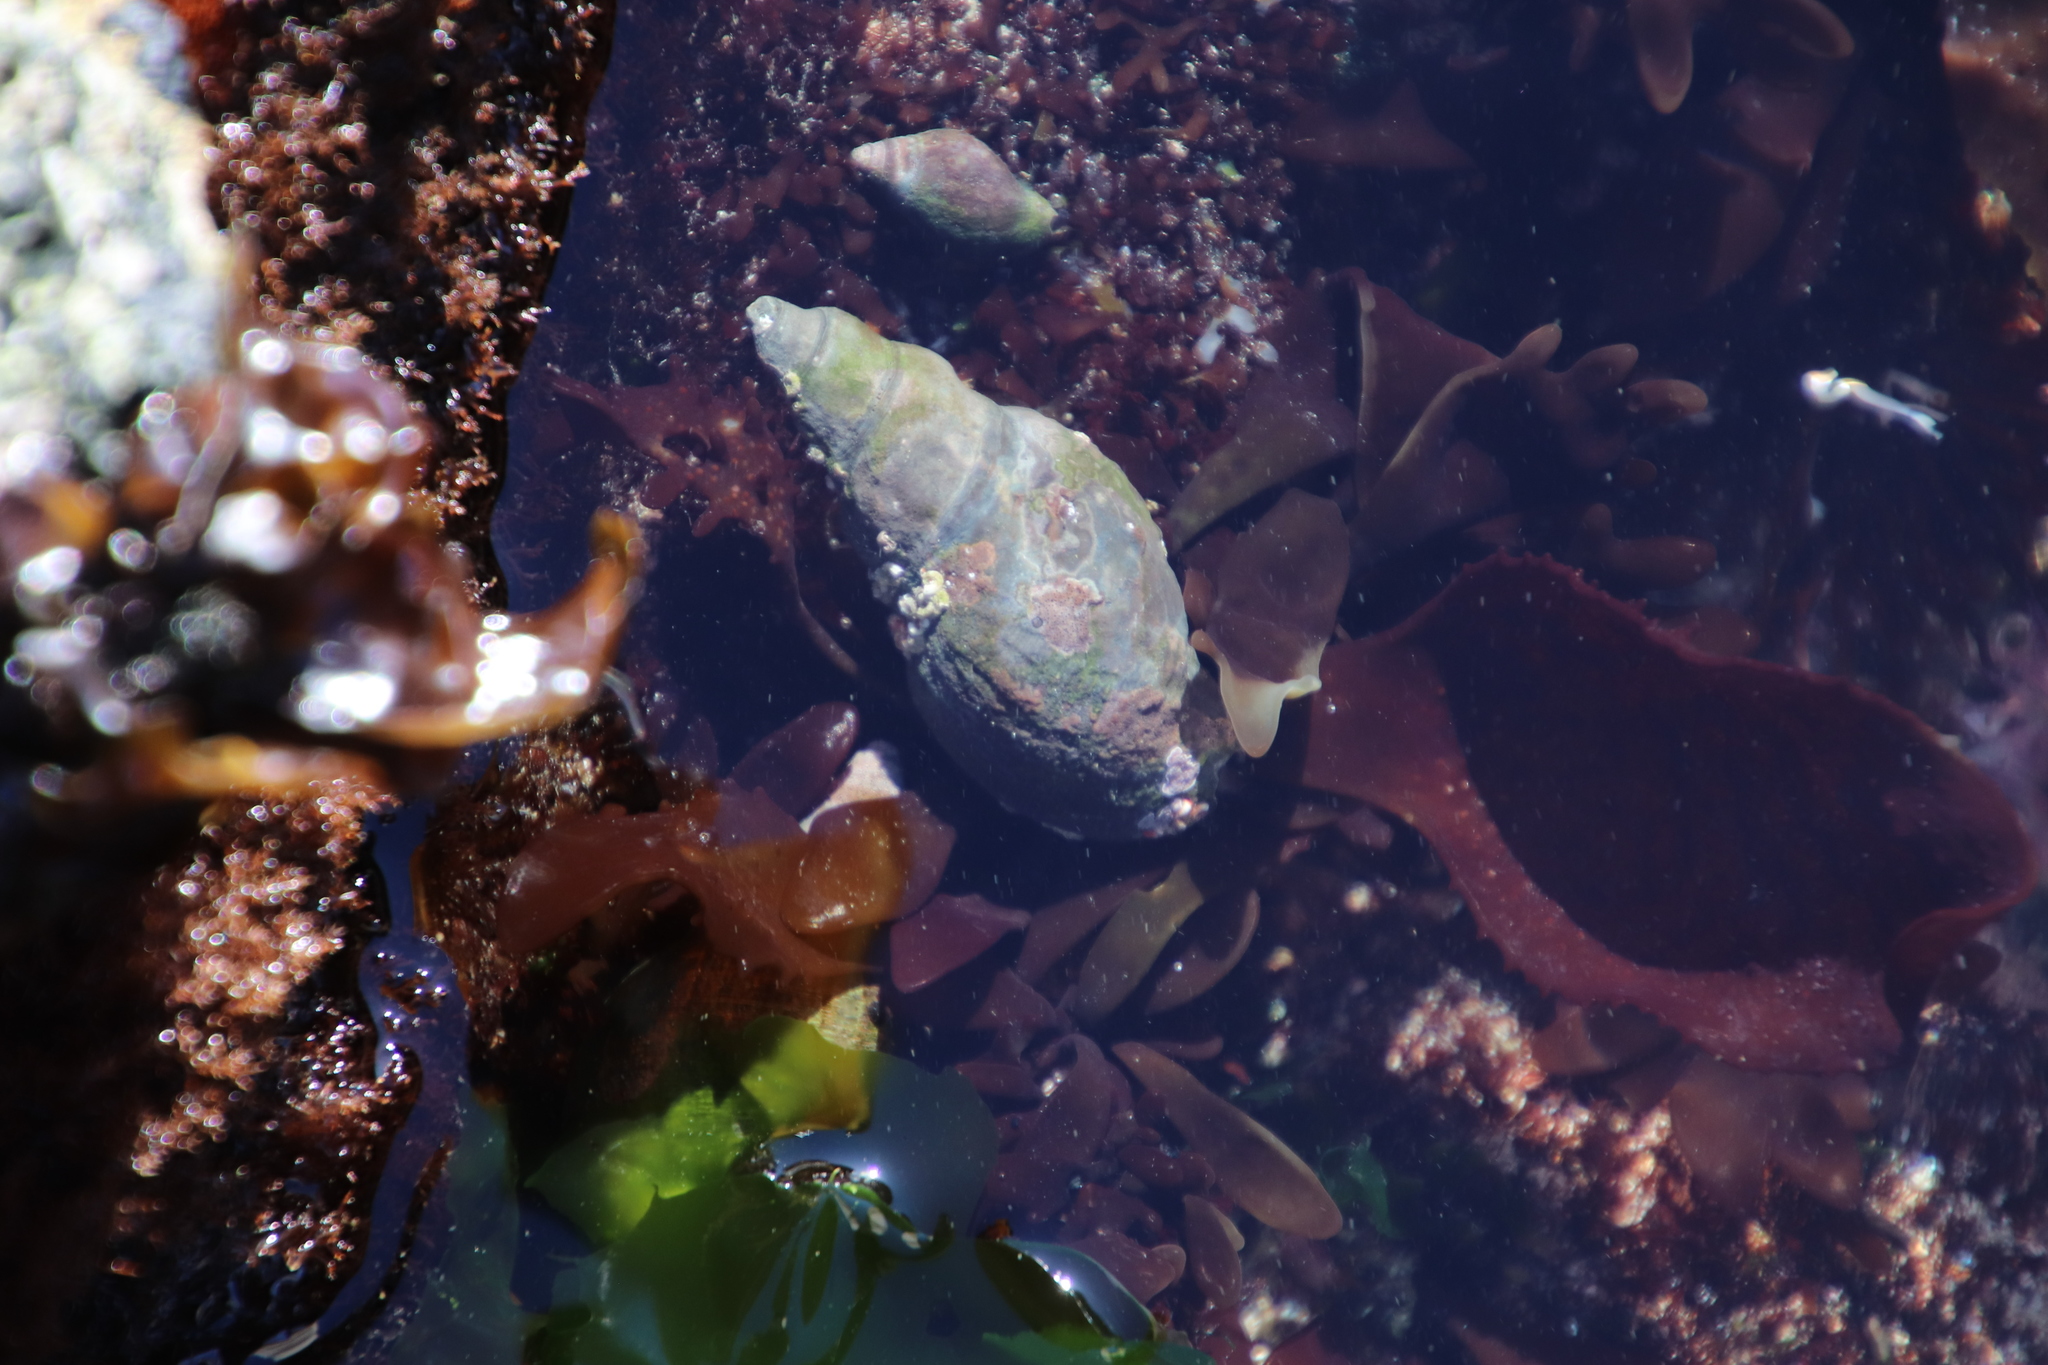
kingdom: Animalia
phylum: Mollusca
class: Gastropoda
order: Neogastropoda
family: Buccinidae
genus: Burnupena
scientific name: Burnupena papyracea
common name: Papery burnupena
